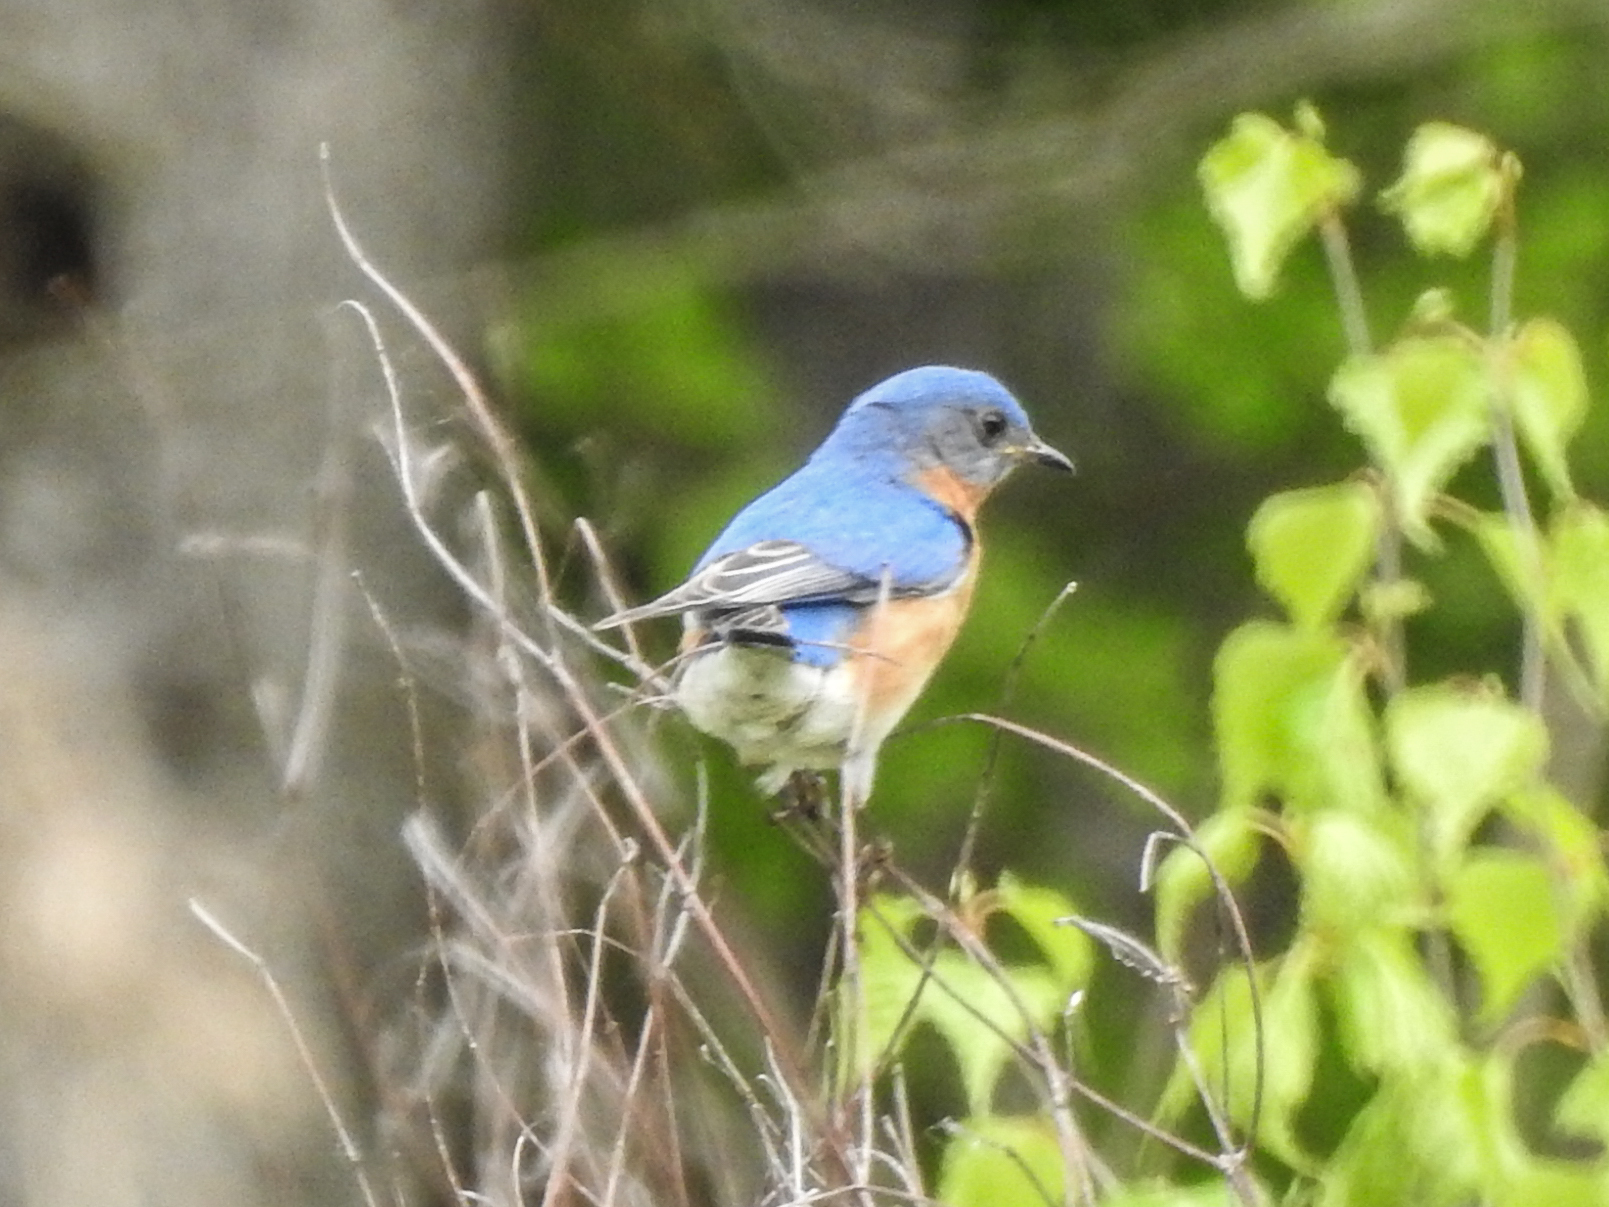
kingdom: Animalia
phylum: Chordata
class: Aves
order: Passeriformes
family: Turdidae
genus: Sialia
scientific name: Sialia sialis
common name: Eastern bluebird
